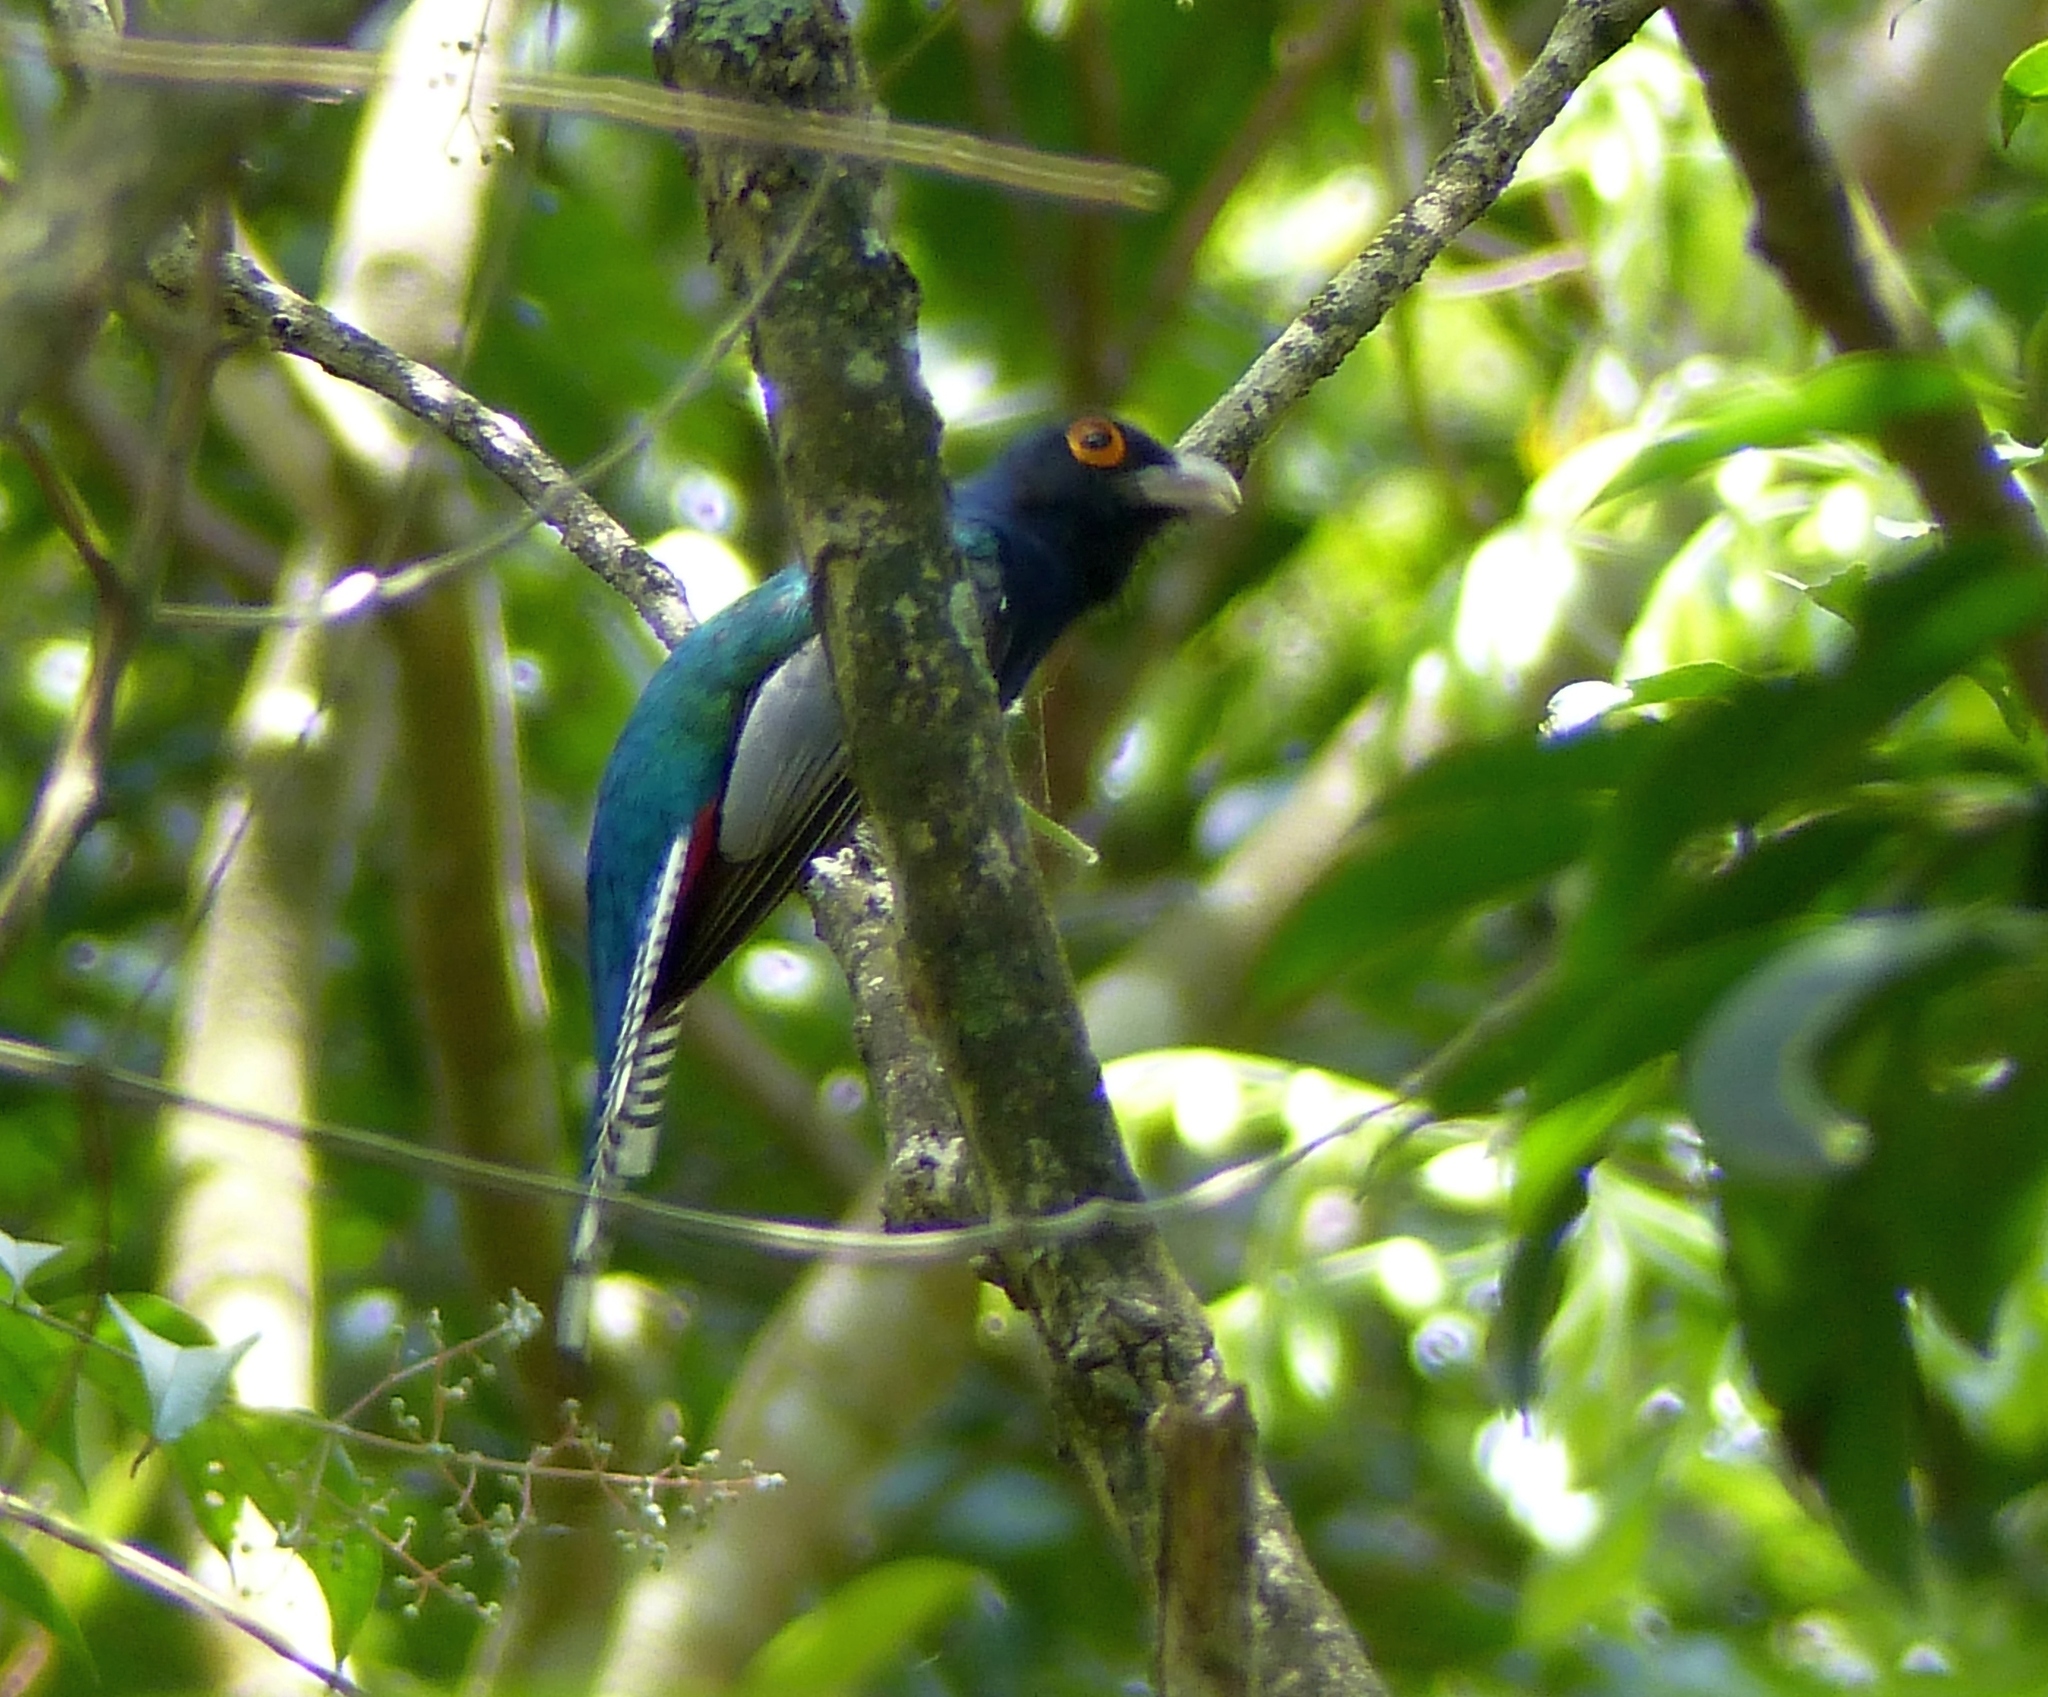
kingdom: Animalia
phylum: Chordata
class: Aves
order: Trogoniformes
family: Trogonidae
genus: Trogon
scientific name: Trogon curucui
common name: Blue-crowned trogon
